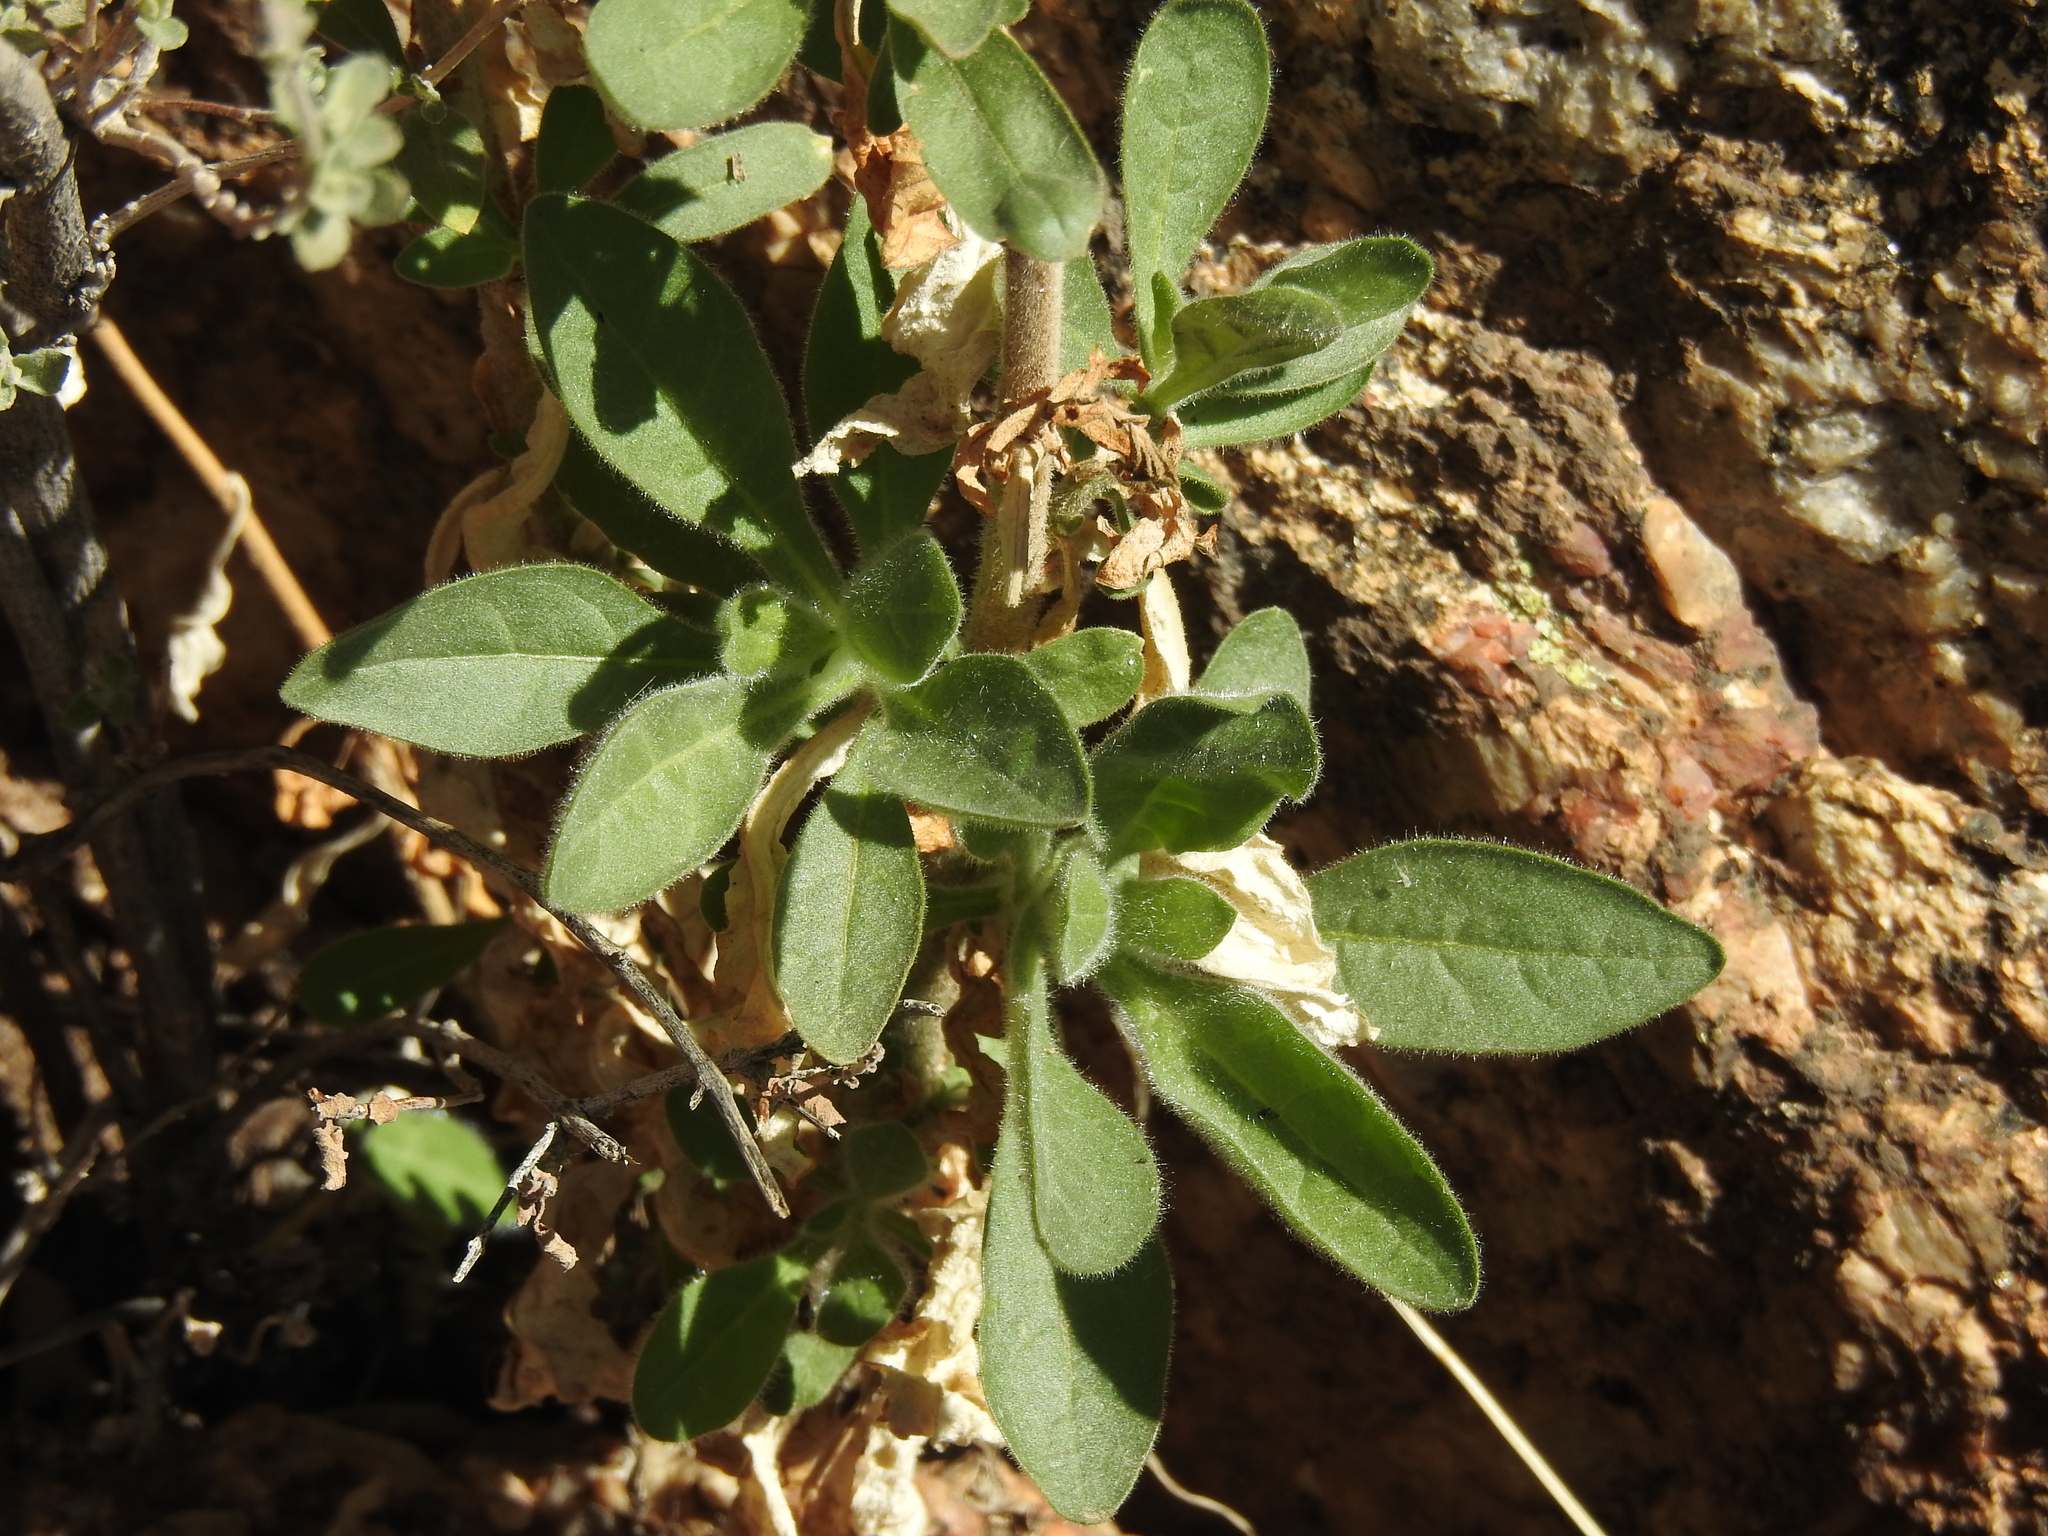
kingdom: Plantae
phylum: Tracheophyta
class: Magnoliopsida
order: Solanales
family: Solanaceae
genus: Nicotiana
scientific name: Nicotiana obtusifolia
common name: Desert tobacco
